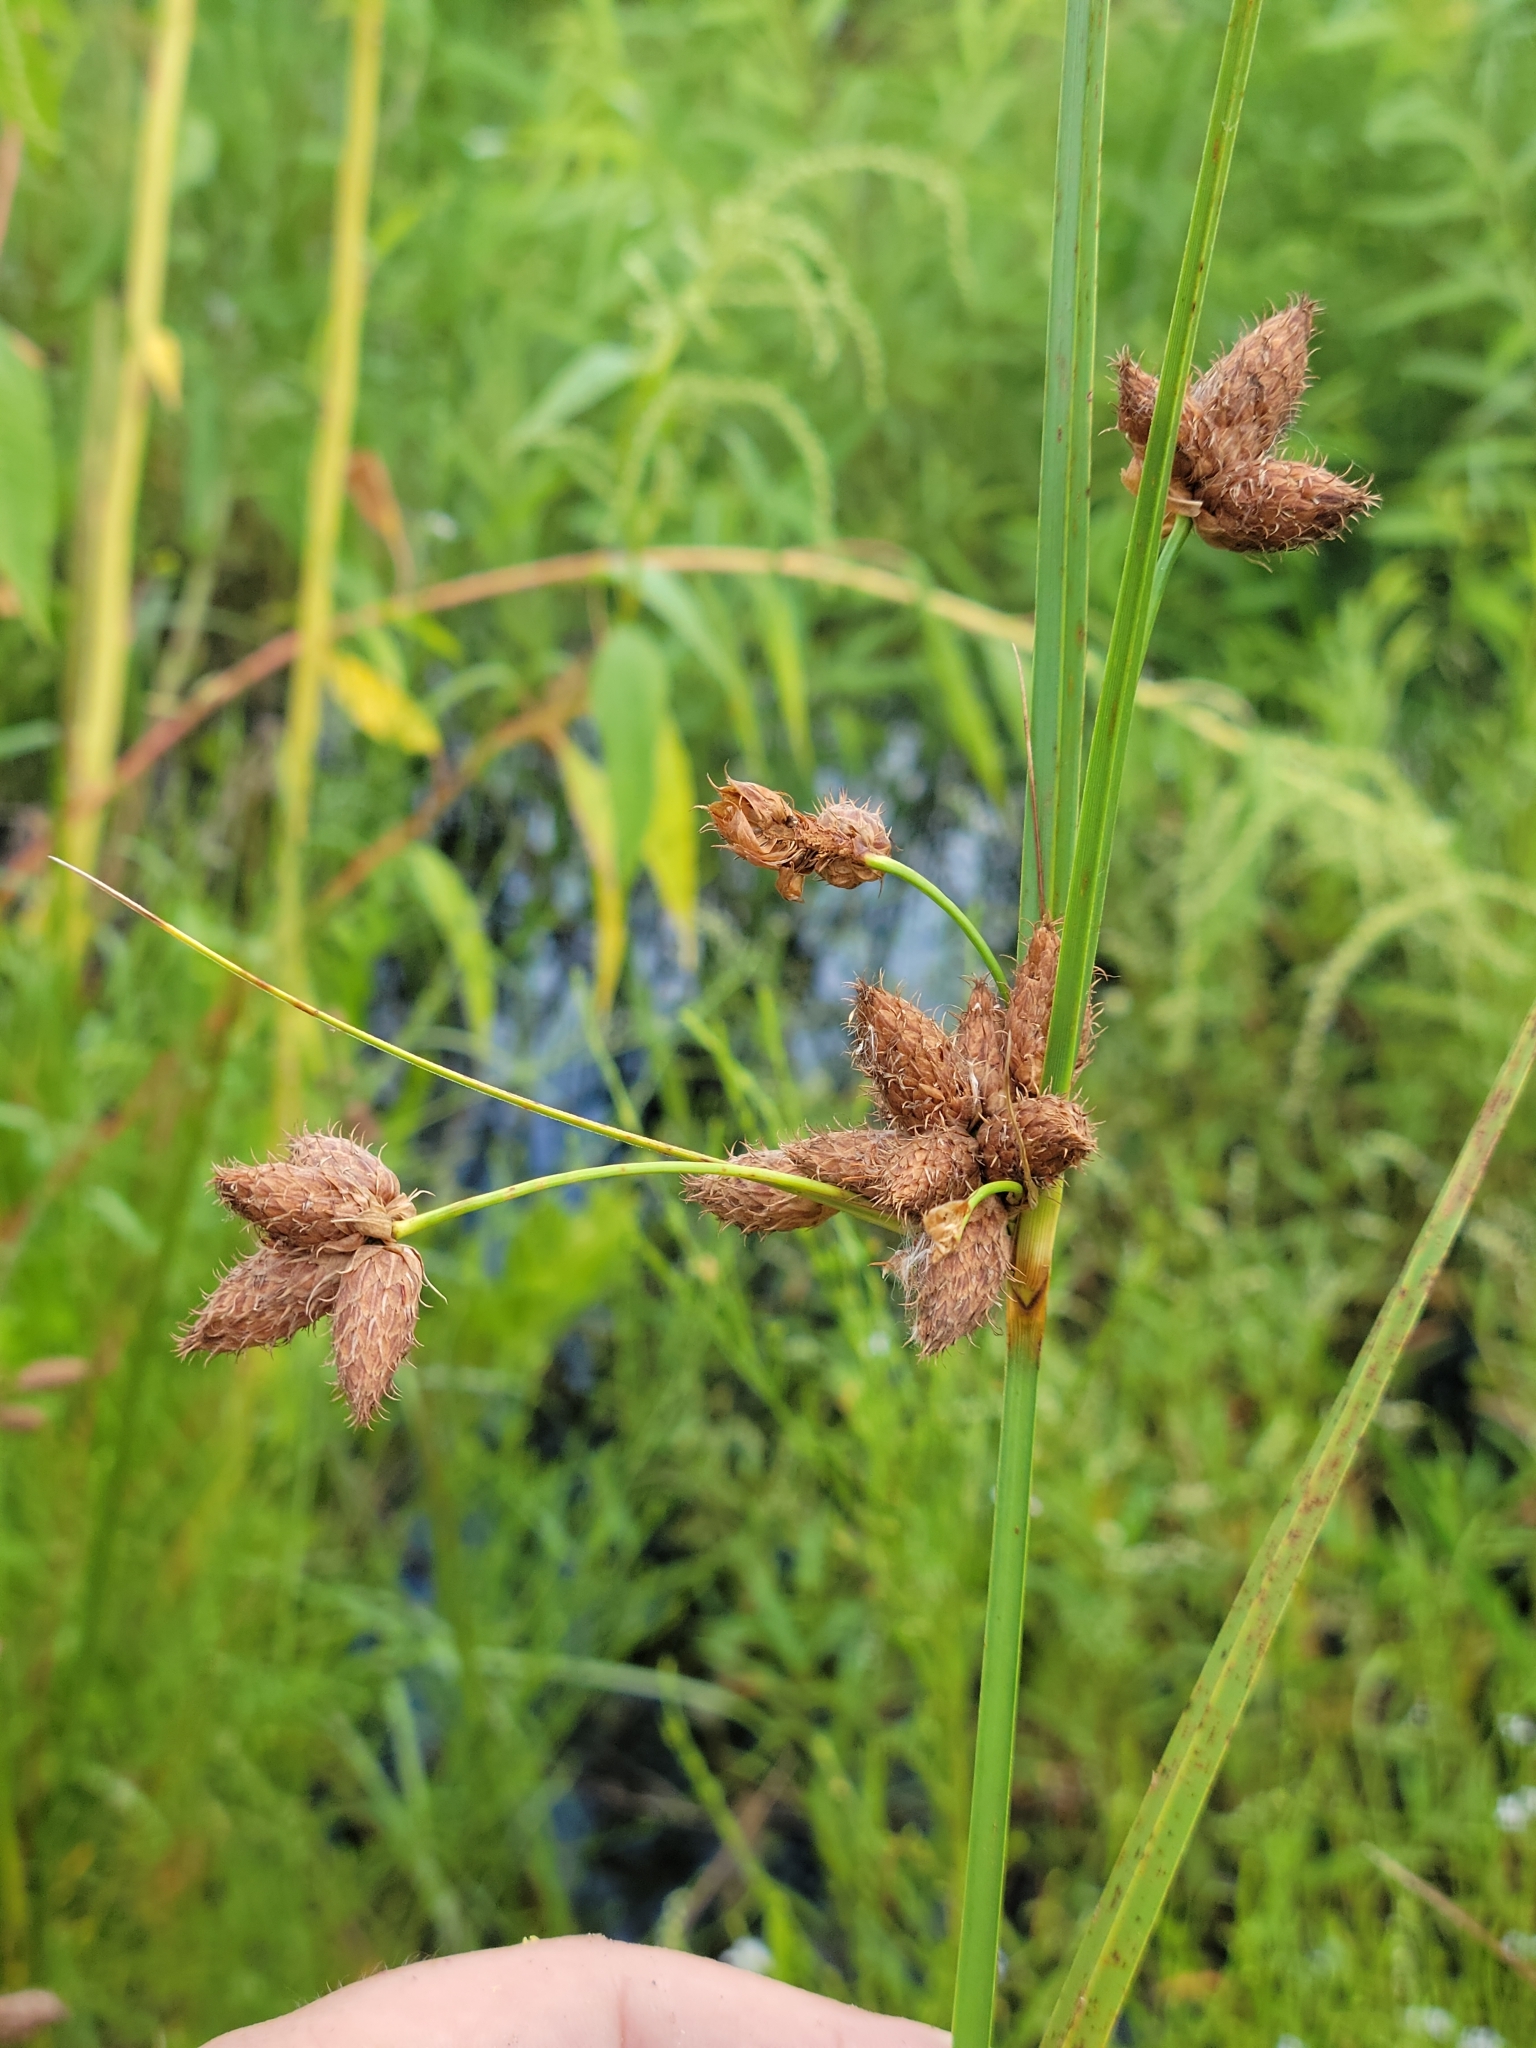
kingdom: Plantae
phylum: Tracheophyta
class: Liliopsida
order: Poales
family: Cyperaceae
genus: Bolboschoenus
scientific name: Bolboschoenus robustus
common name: Seacoast bulrush
